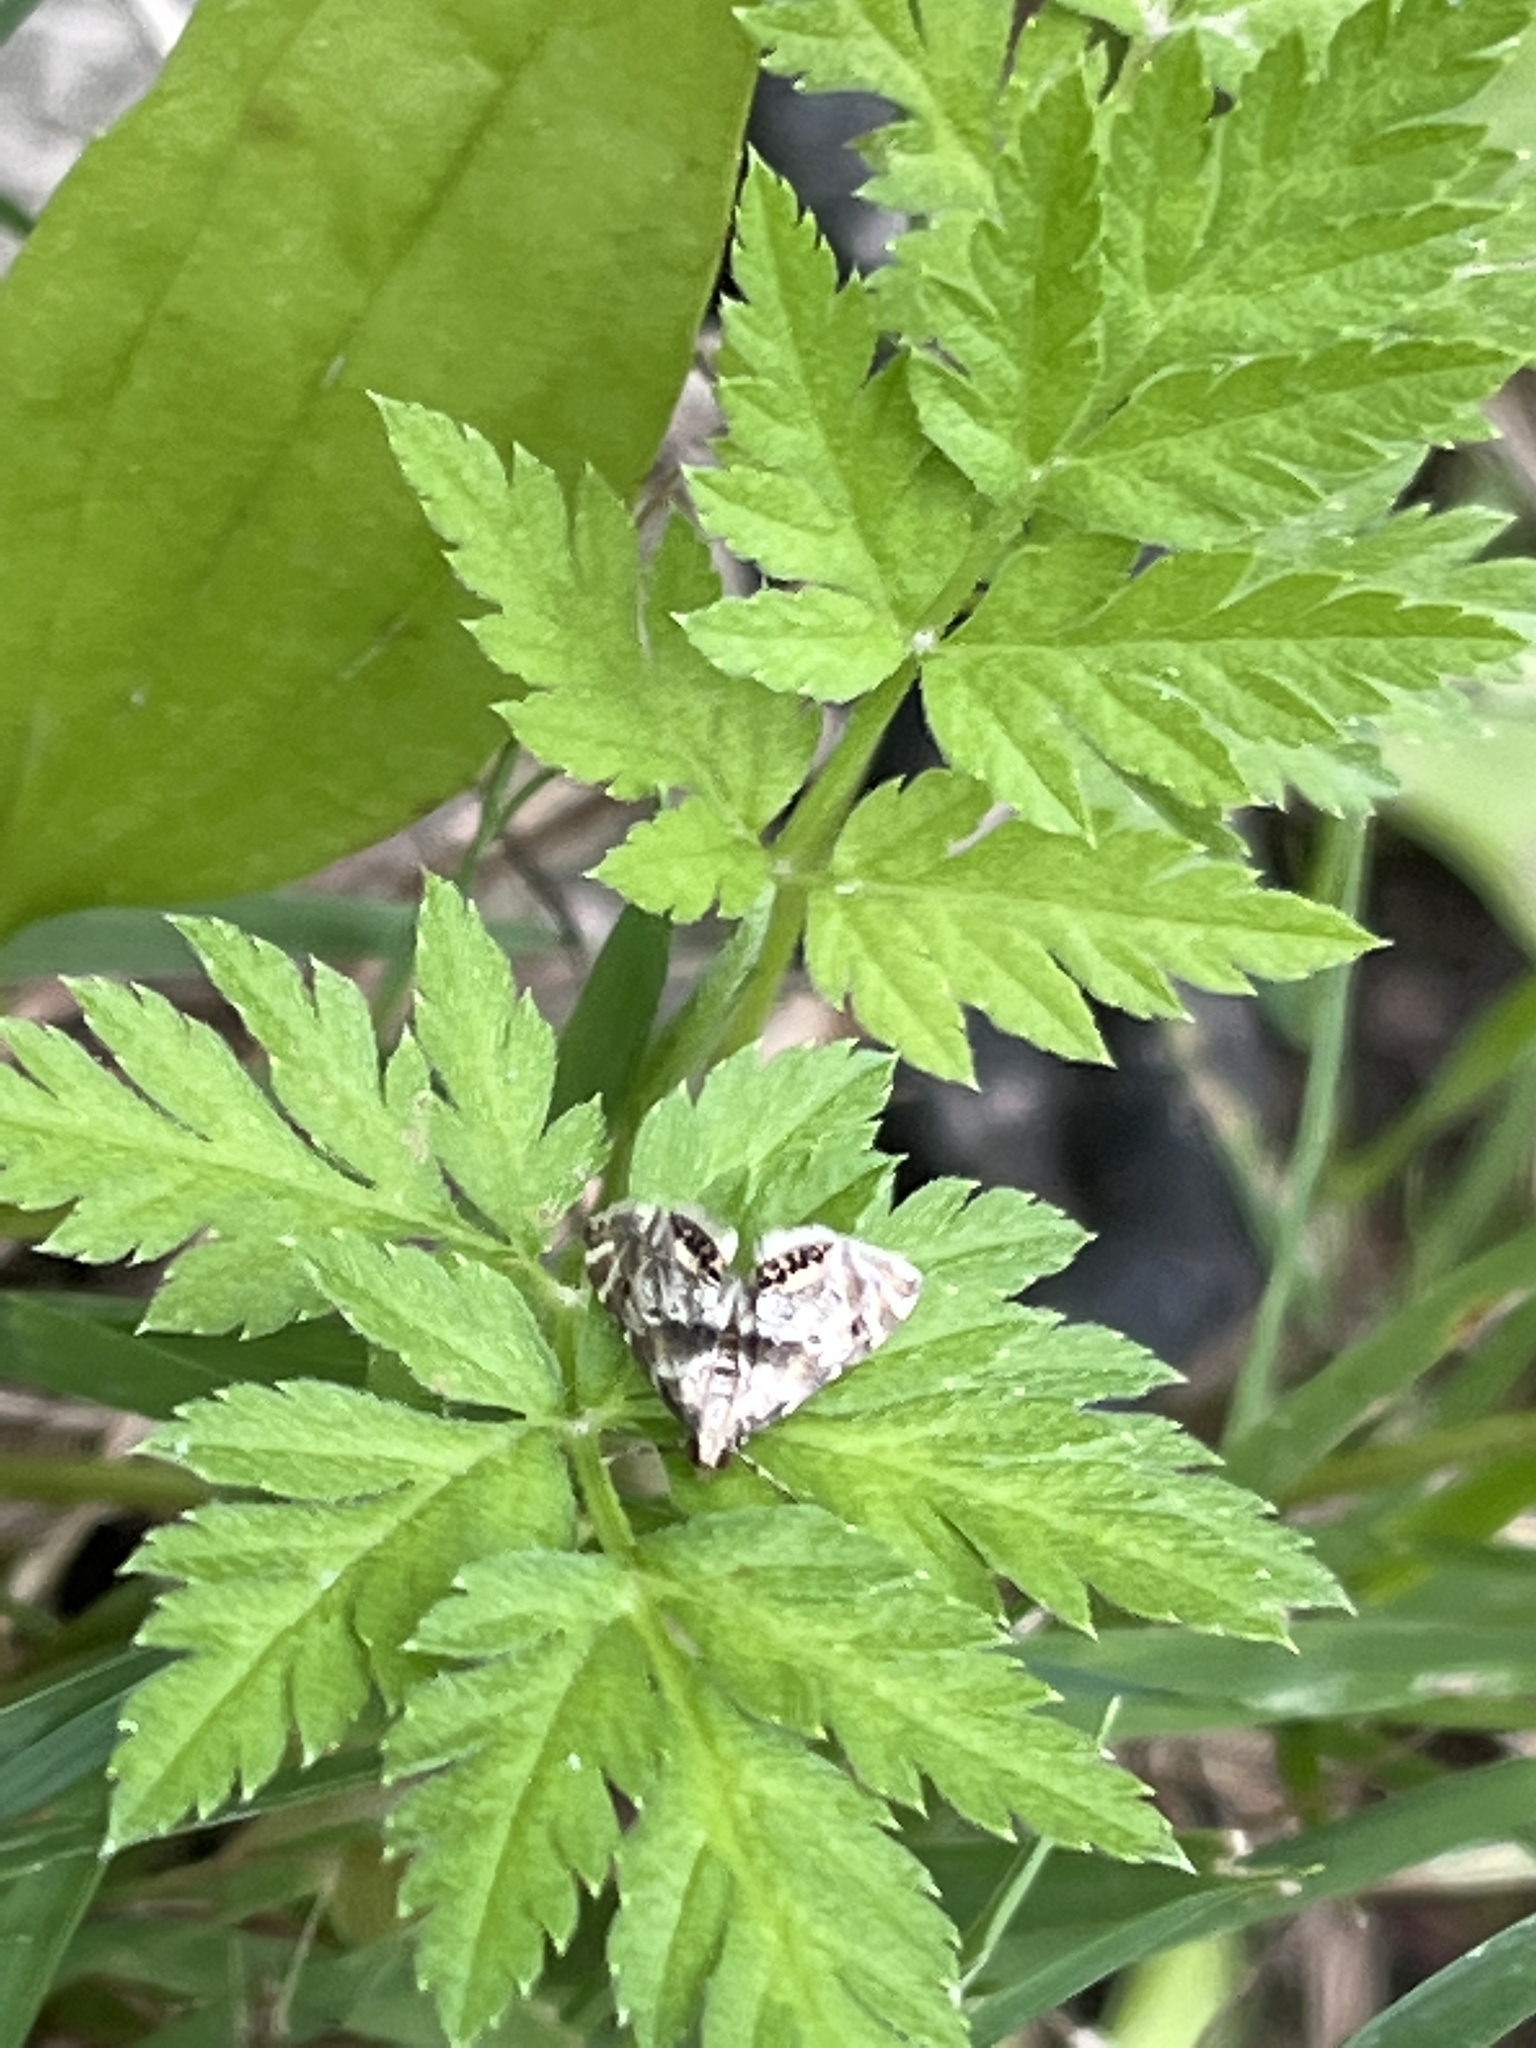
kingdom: Animalia
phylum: Arthropoda
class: Insecta
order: Lepidoptera
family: Crambidae
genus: Petrophila
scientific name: Petrophila fulicalis
